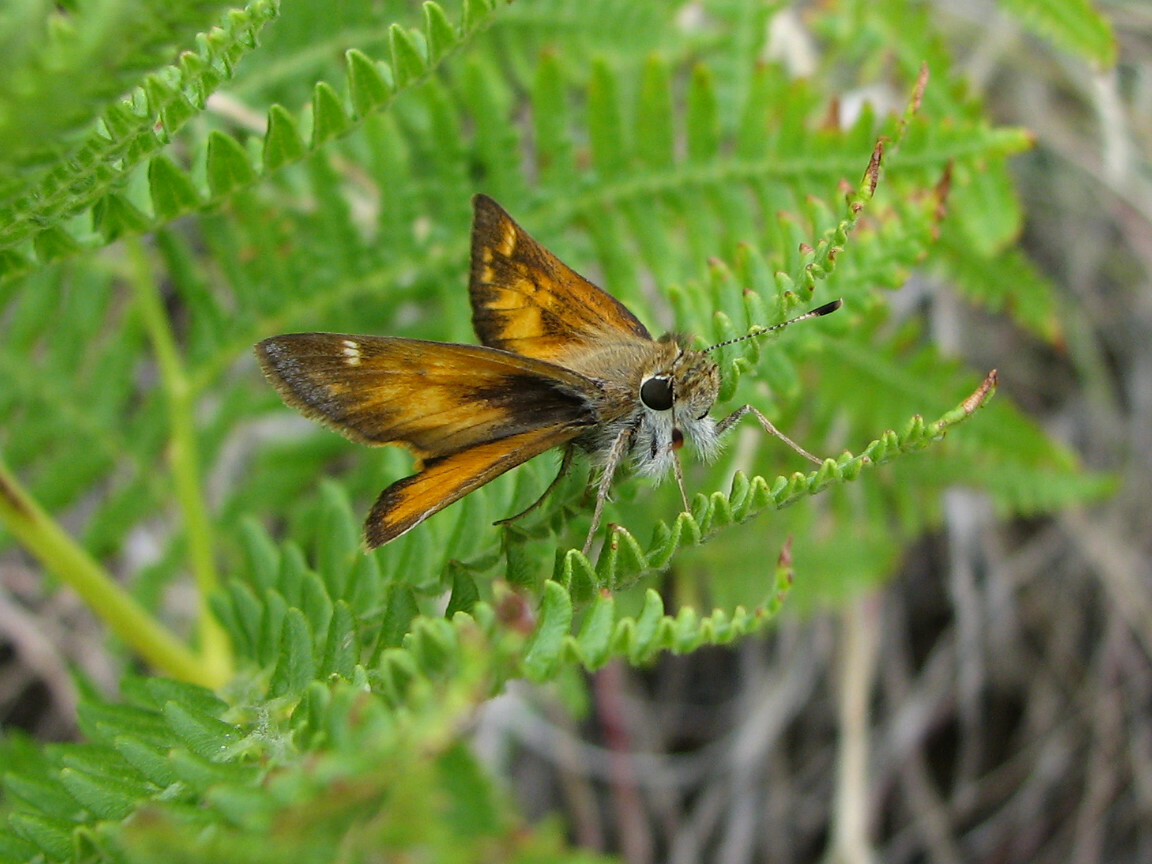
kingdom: Animalia
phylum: Arthropoda
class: Insecta
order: Lepidoptera
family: Hesperiidae
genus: Lon
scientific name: Lon taxiles
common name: Taxiles skipper
